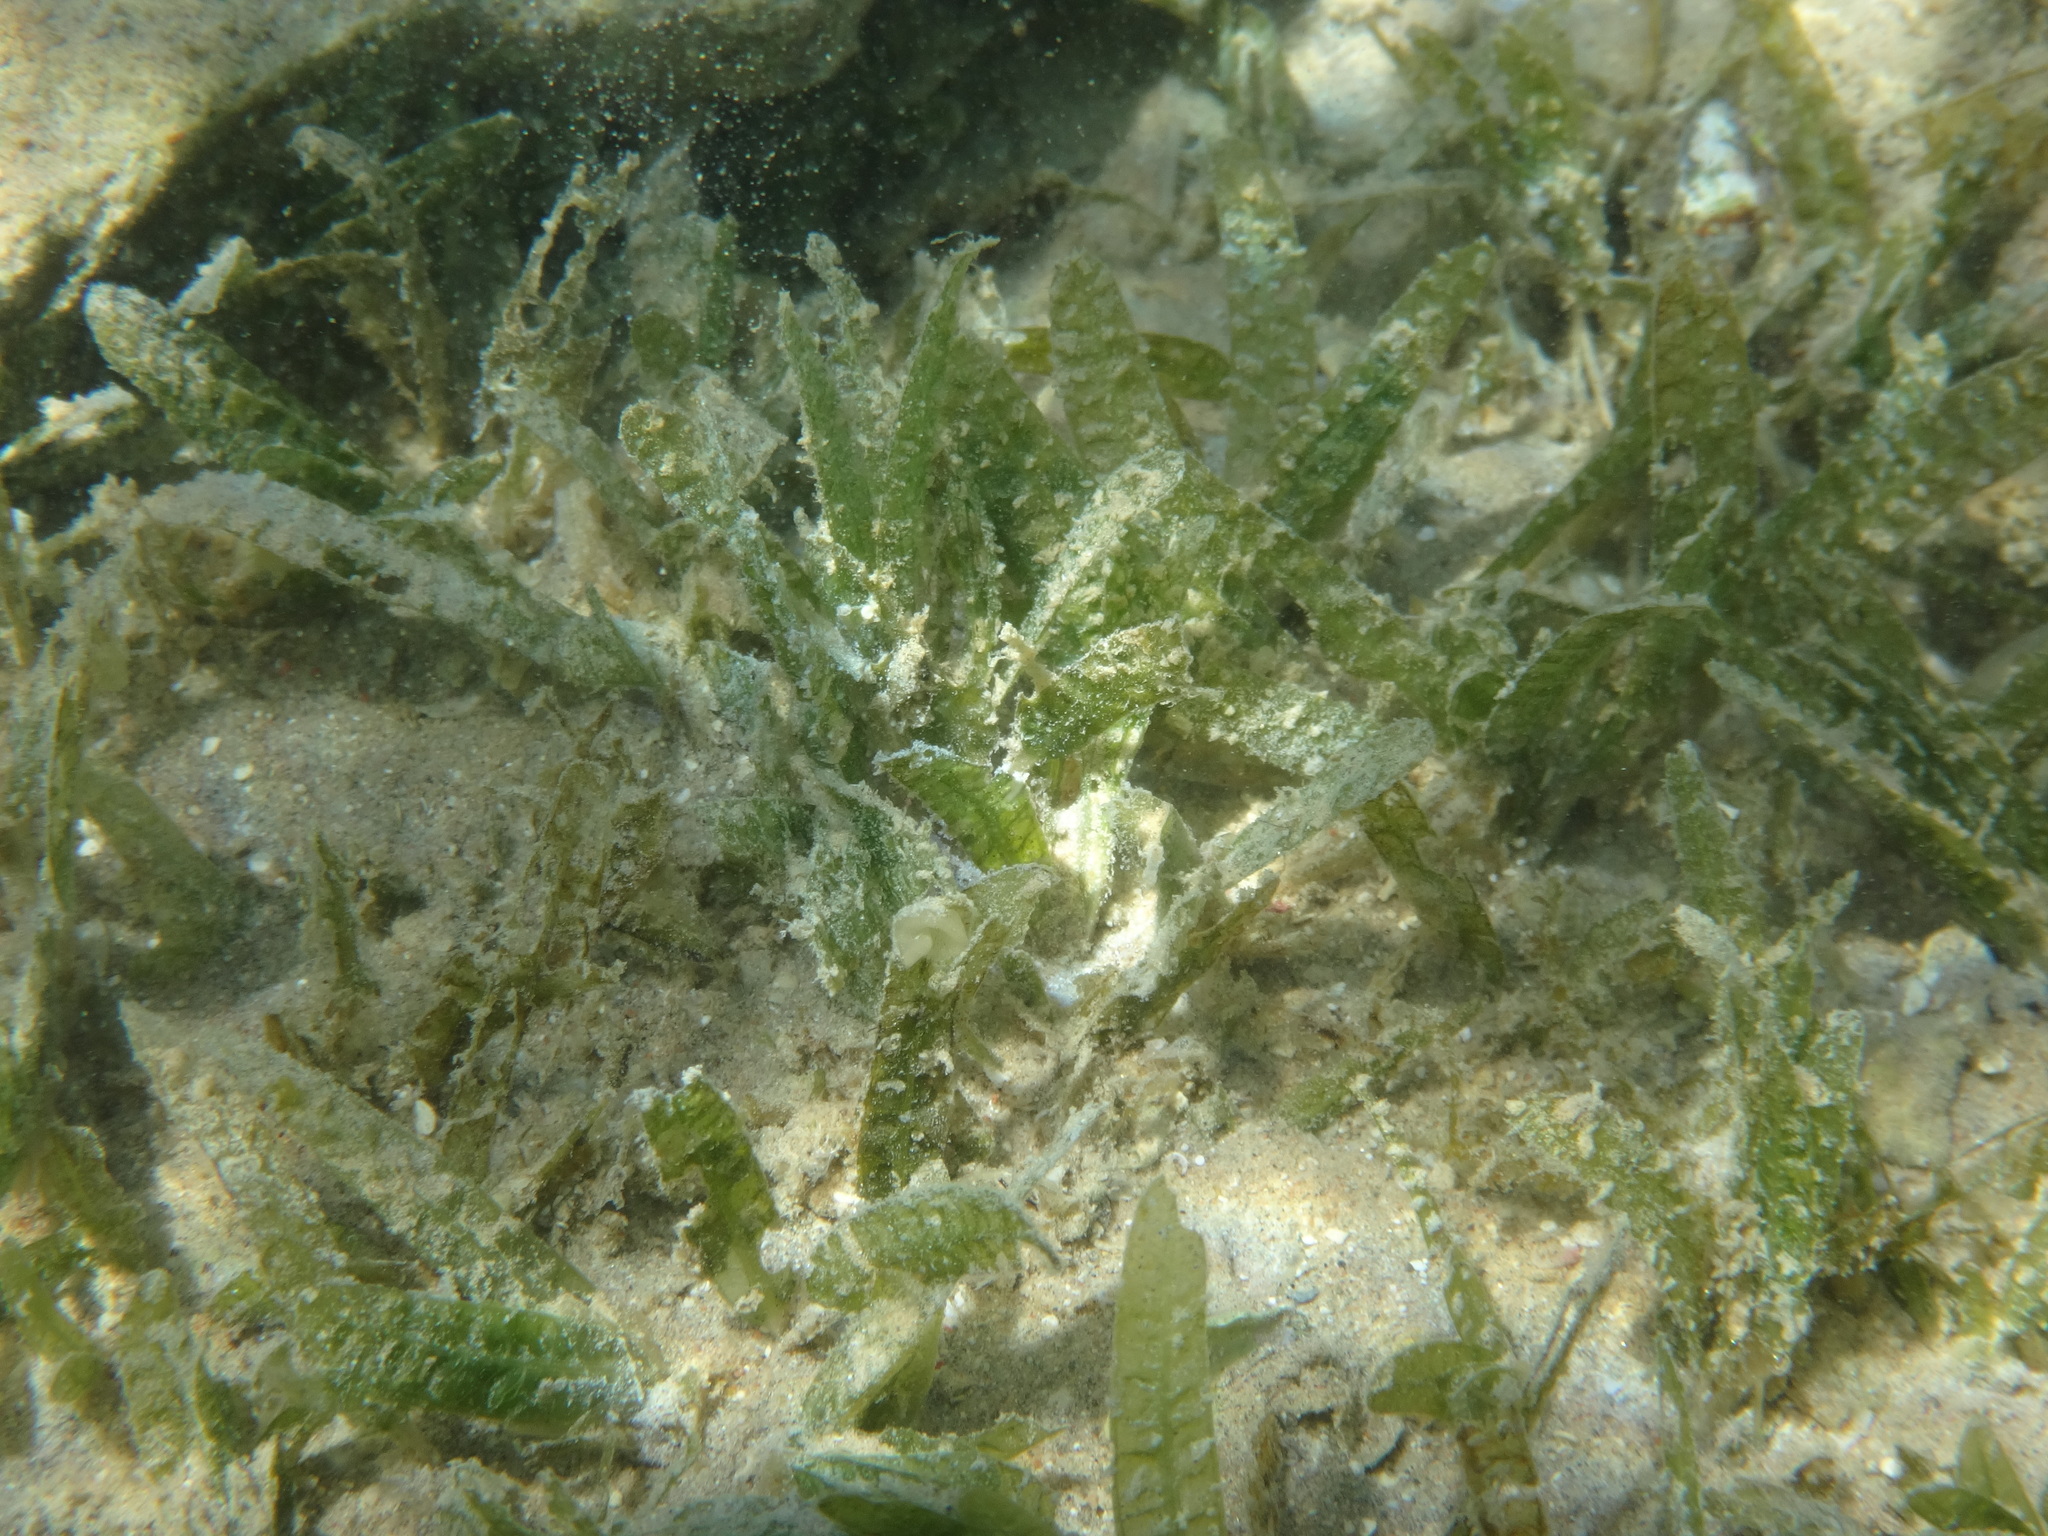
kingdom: Plantae
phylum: Tracheophyta
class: Liliopsida
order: Alismatales
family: Hydrocharitaceae
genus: Halophila
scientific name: Halophila stipulacea
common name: Species code: hs
